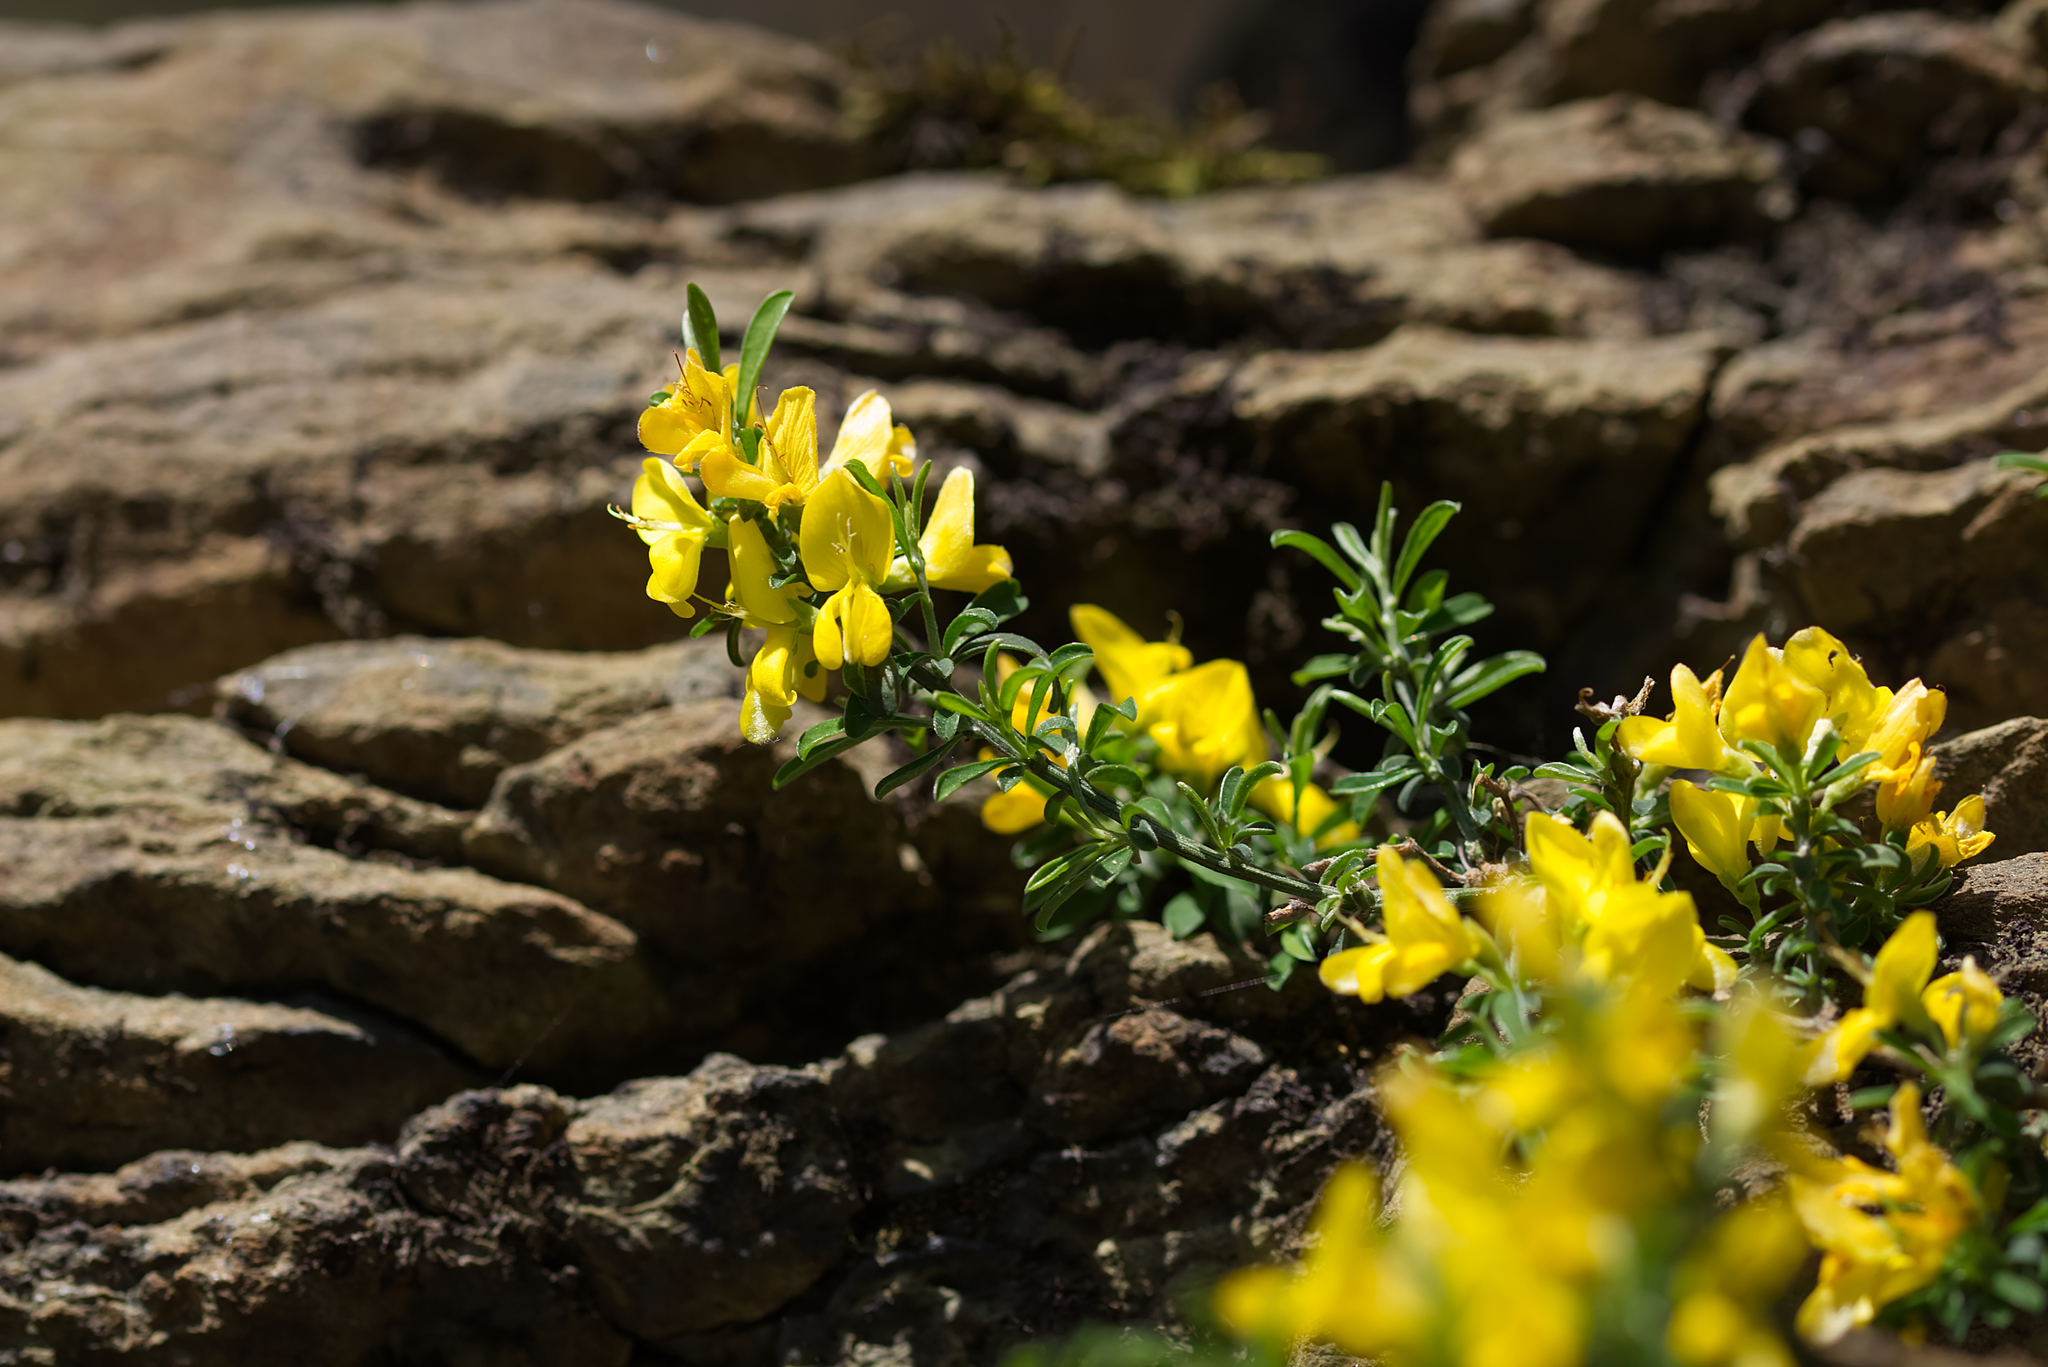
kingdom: Plantae
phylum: Tracheophyta
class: Magnoliopsida
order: Fabales
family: Fabaceae
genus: Genista
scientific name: Genista pilosa
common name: Hairy greenweed
